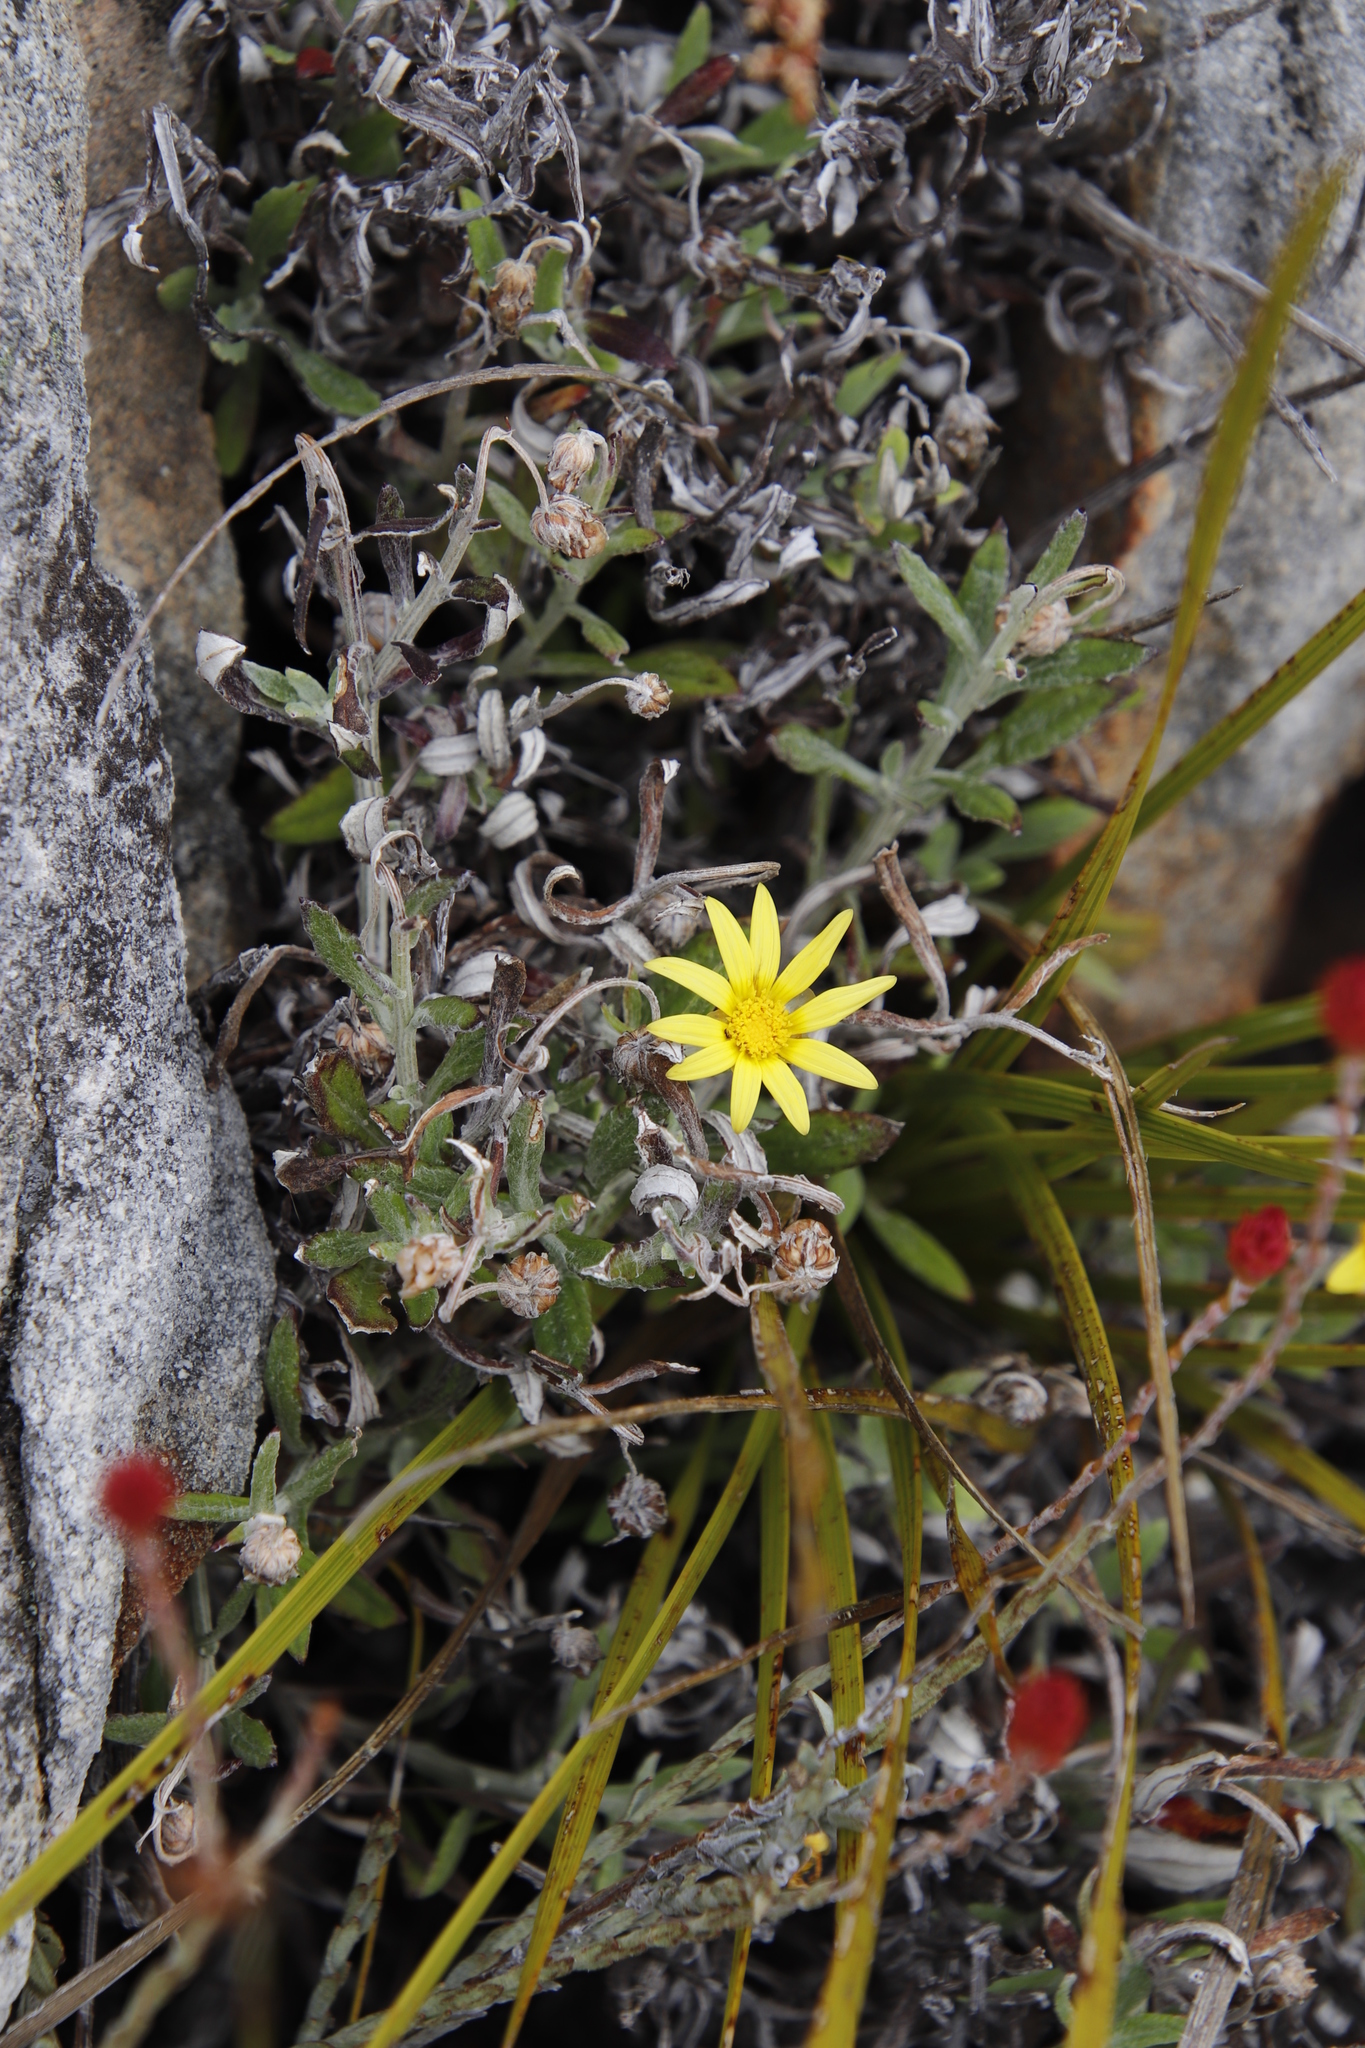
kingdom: Plantae
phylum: Tracheophyta
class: Magnoliopsida
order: Asterales
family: Asteraceae
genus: Arctotis
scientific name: Arctotis scabra
